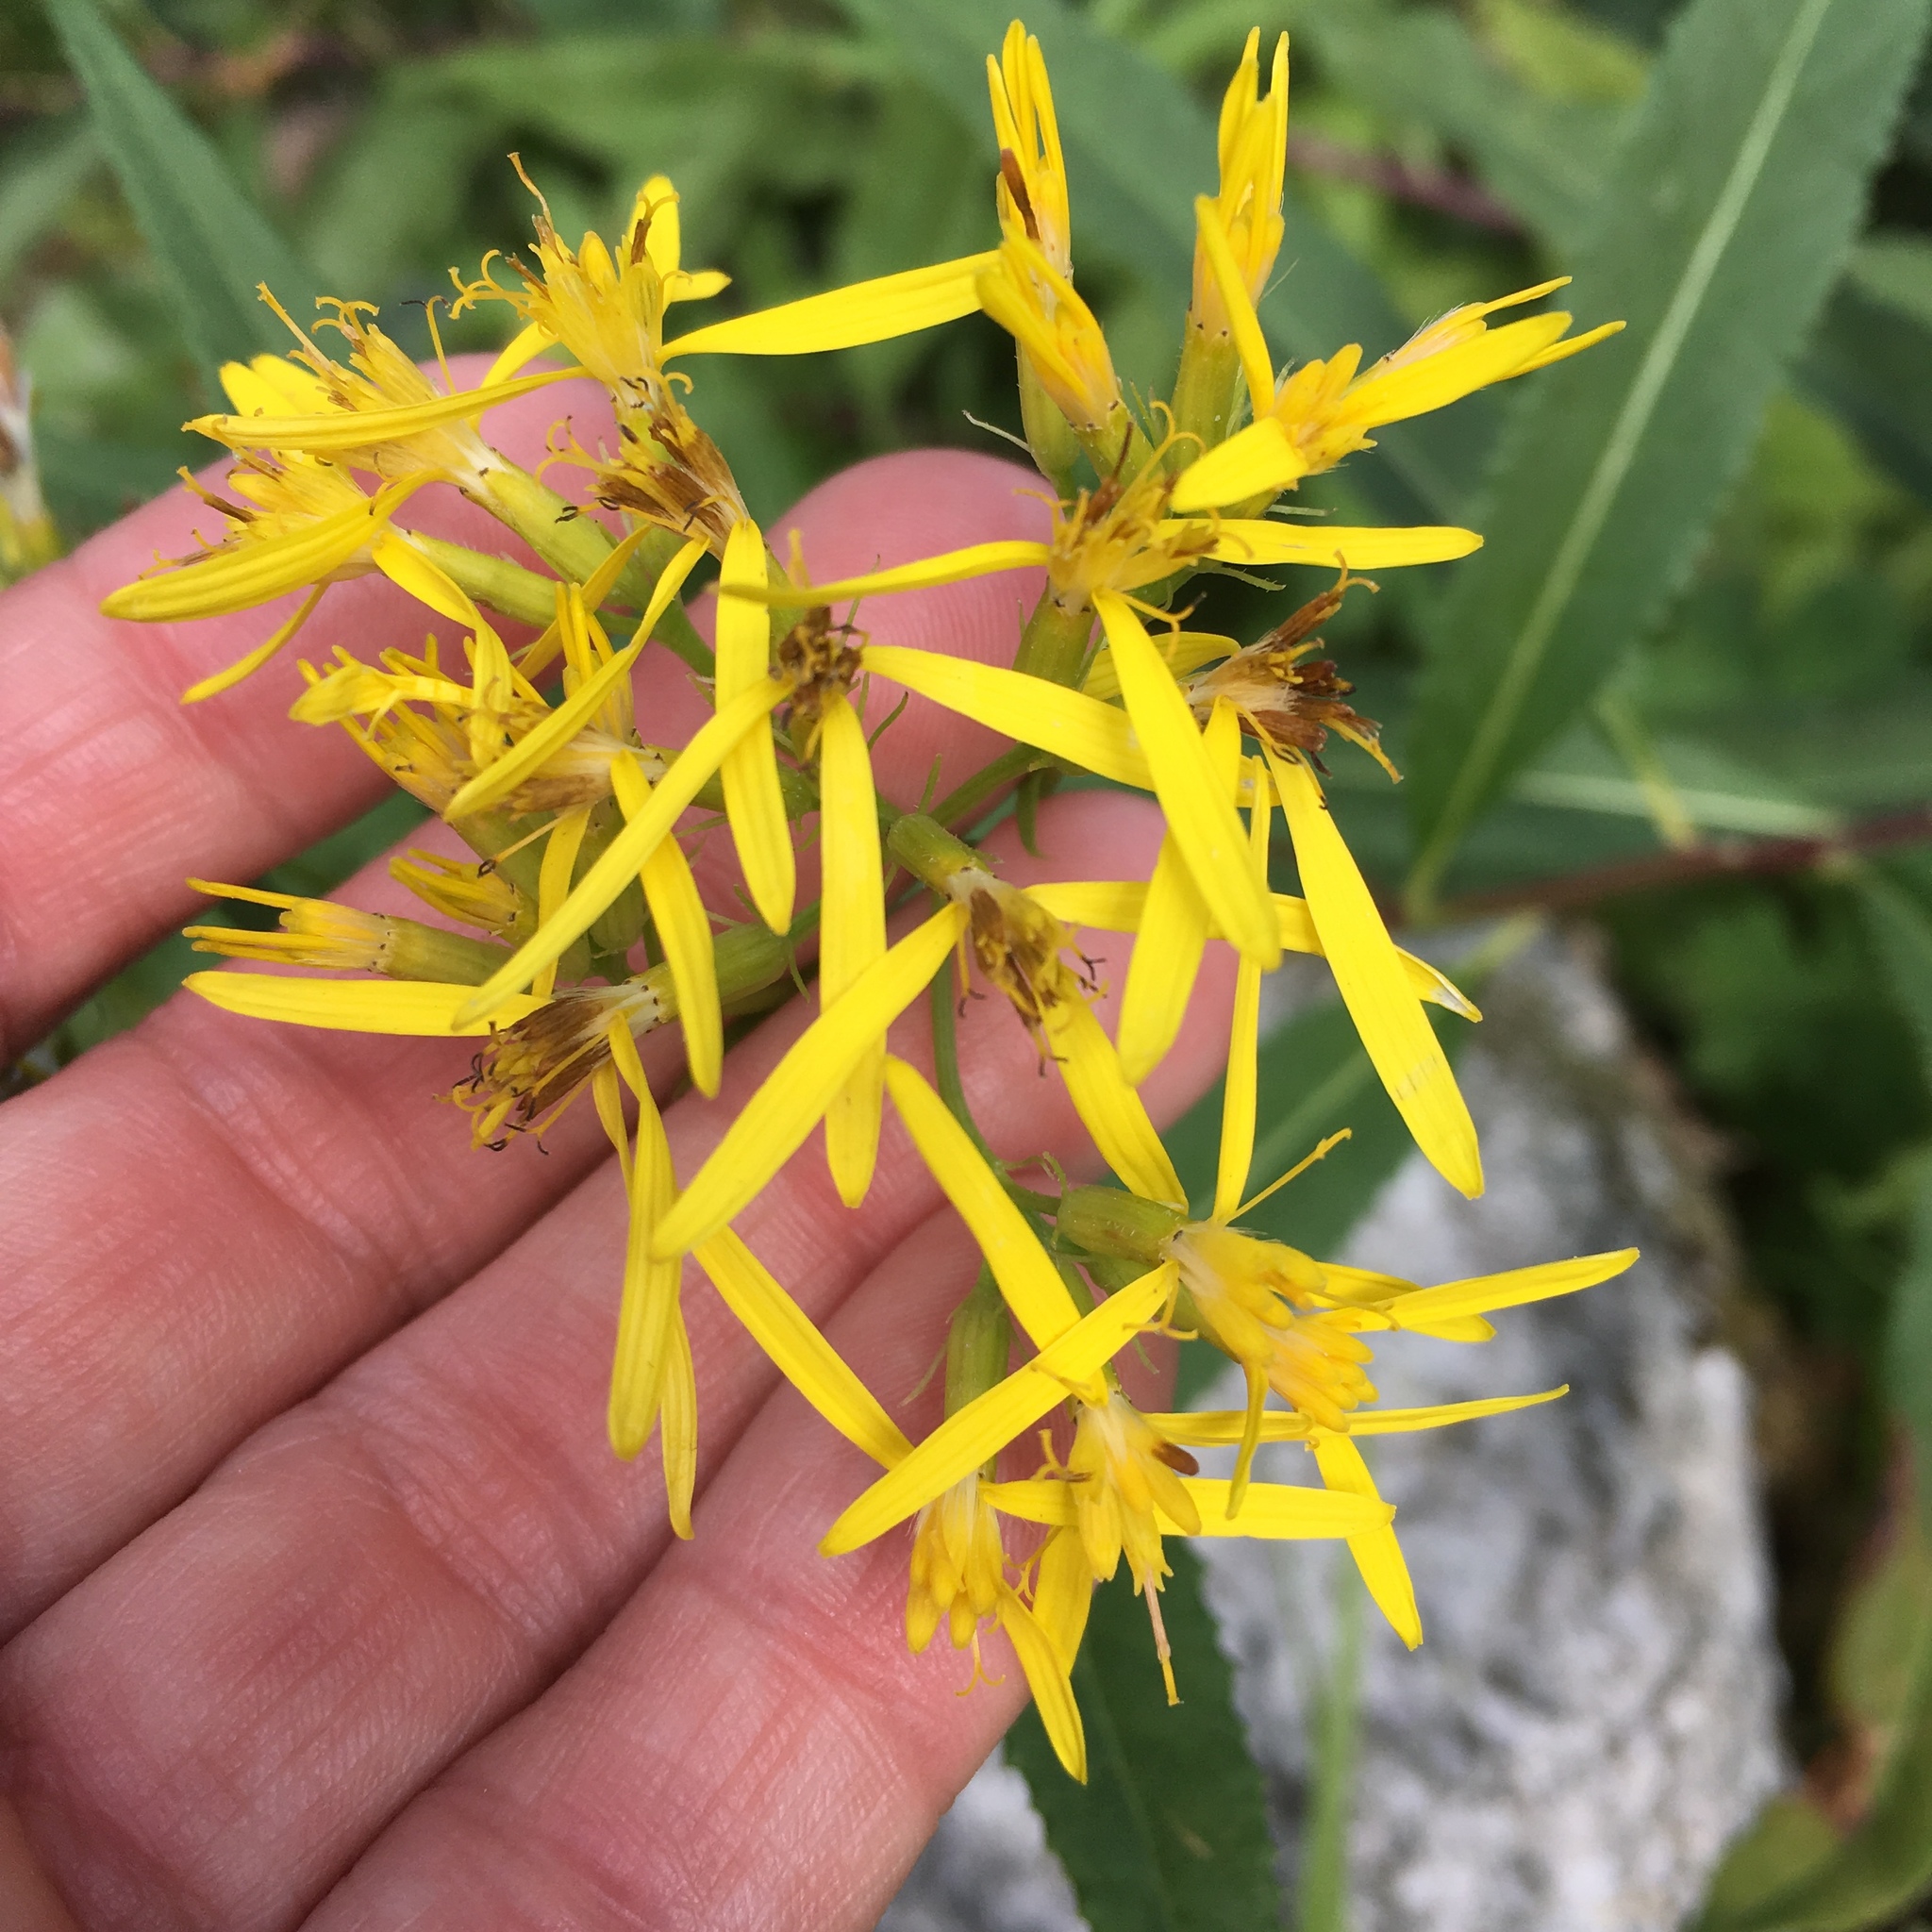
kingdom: Plantae
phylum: Tracheophyta
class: Magnoliopsida
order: Asterales
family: Asteraceae
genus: Senecio
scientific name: Senecio ovatus
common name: Wood ragwort
